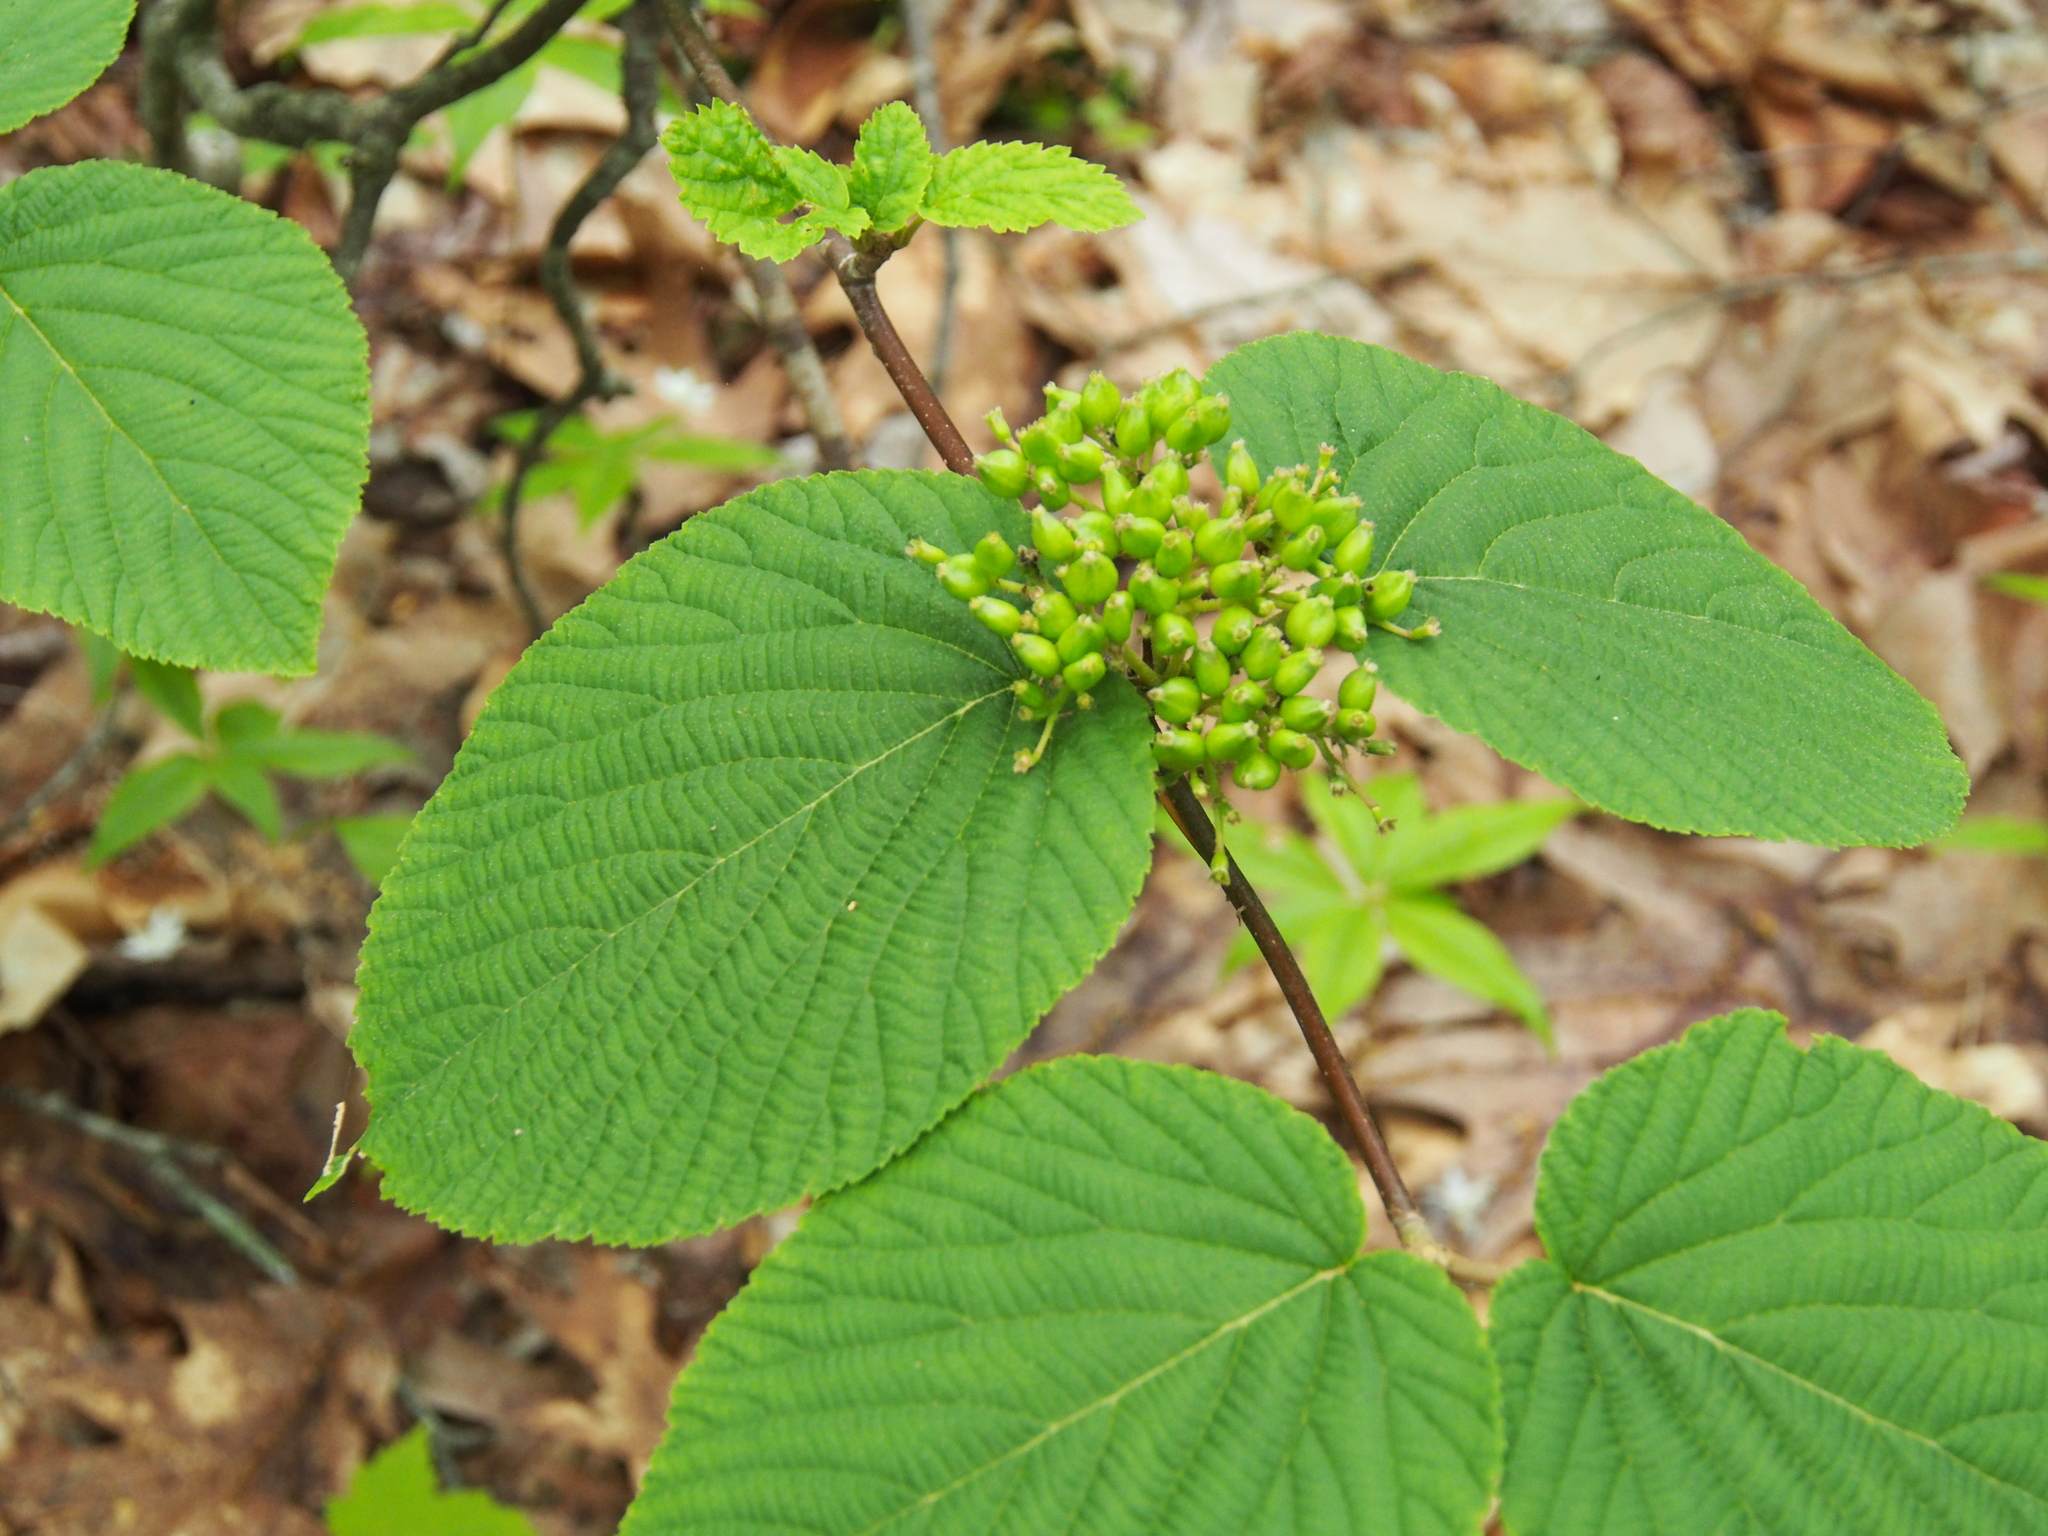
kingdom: Plantae
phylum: Tracheophyta
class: Magnoliopsida
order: Dipsacales
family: Viburnaceae
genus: Viburnum
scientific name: Viburnum lantanoides
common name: Hobblebush
